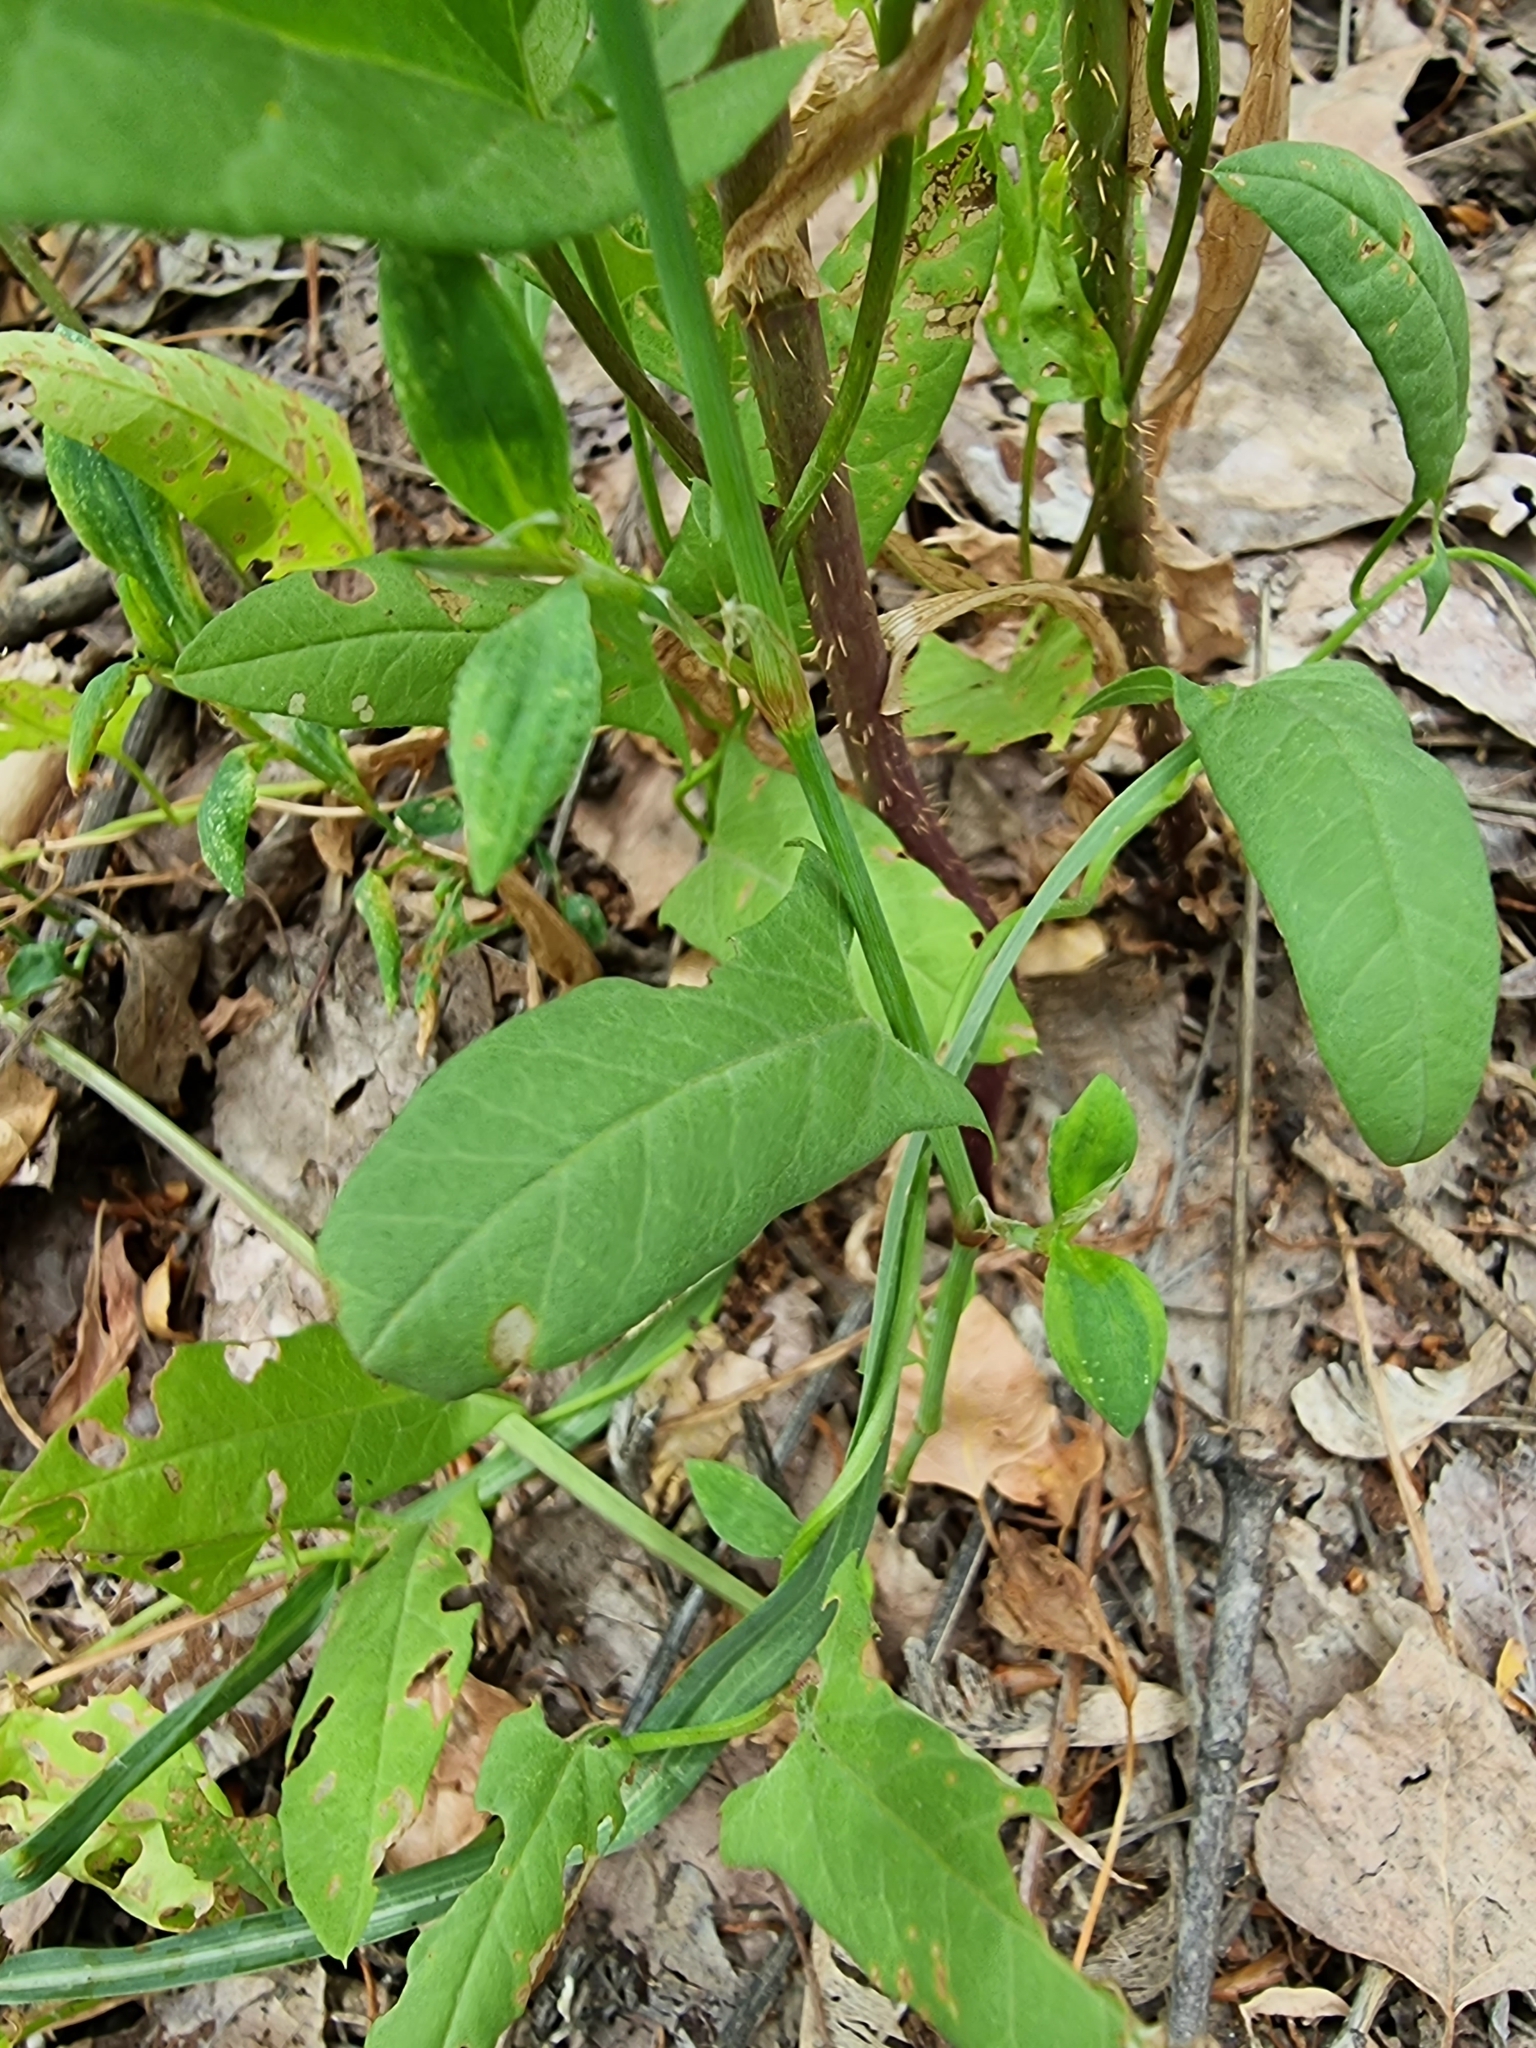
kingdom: Plantae
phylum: Tracheophyta
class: Magnoliopsida
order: Solanales
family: Convolvulaceae
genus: Convolvulus
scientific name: Convolvulus arvensis
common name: Field bindweed
